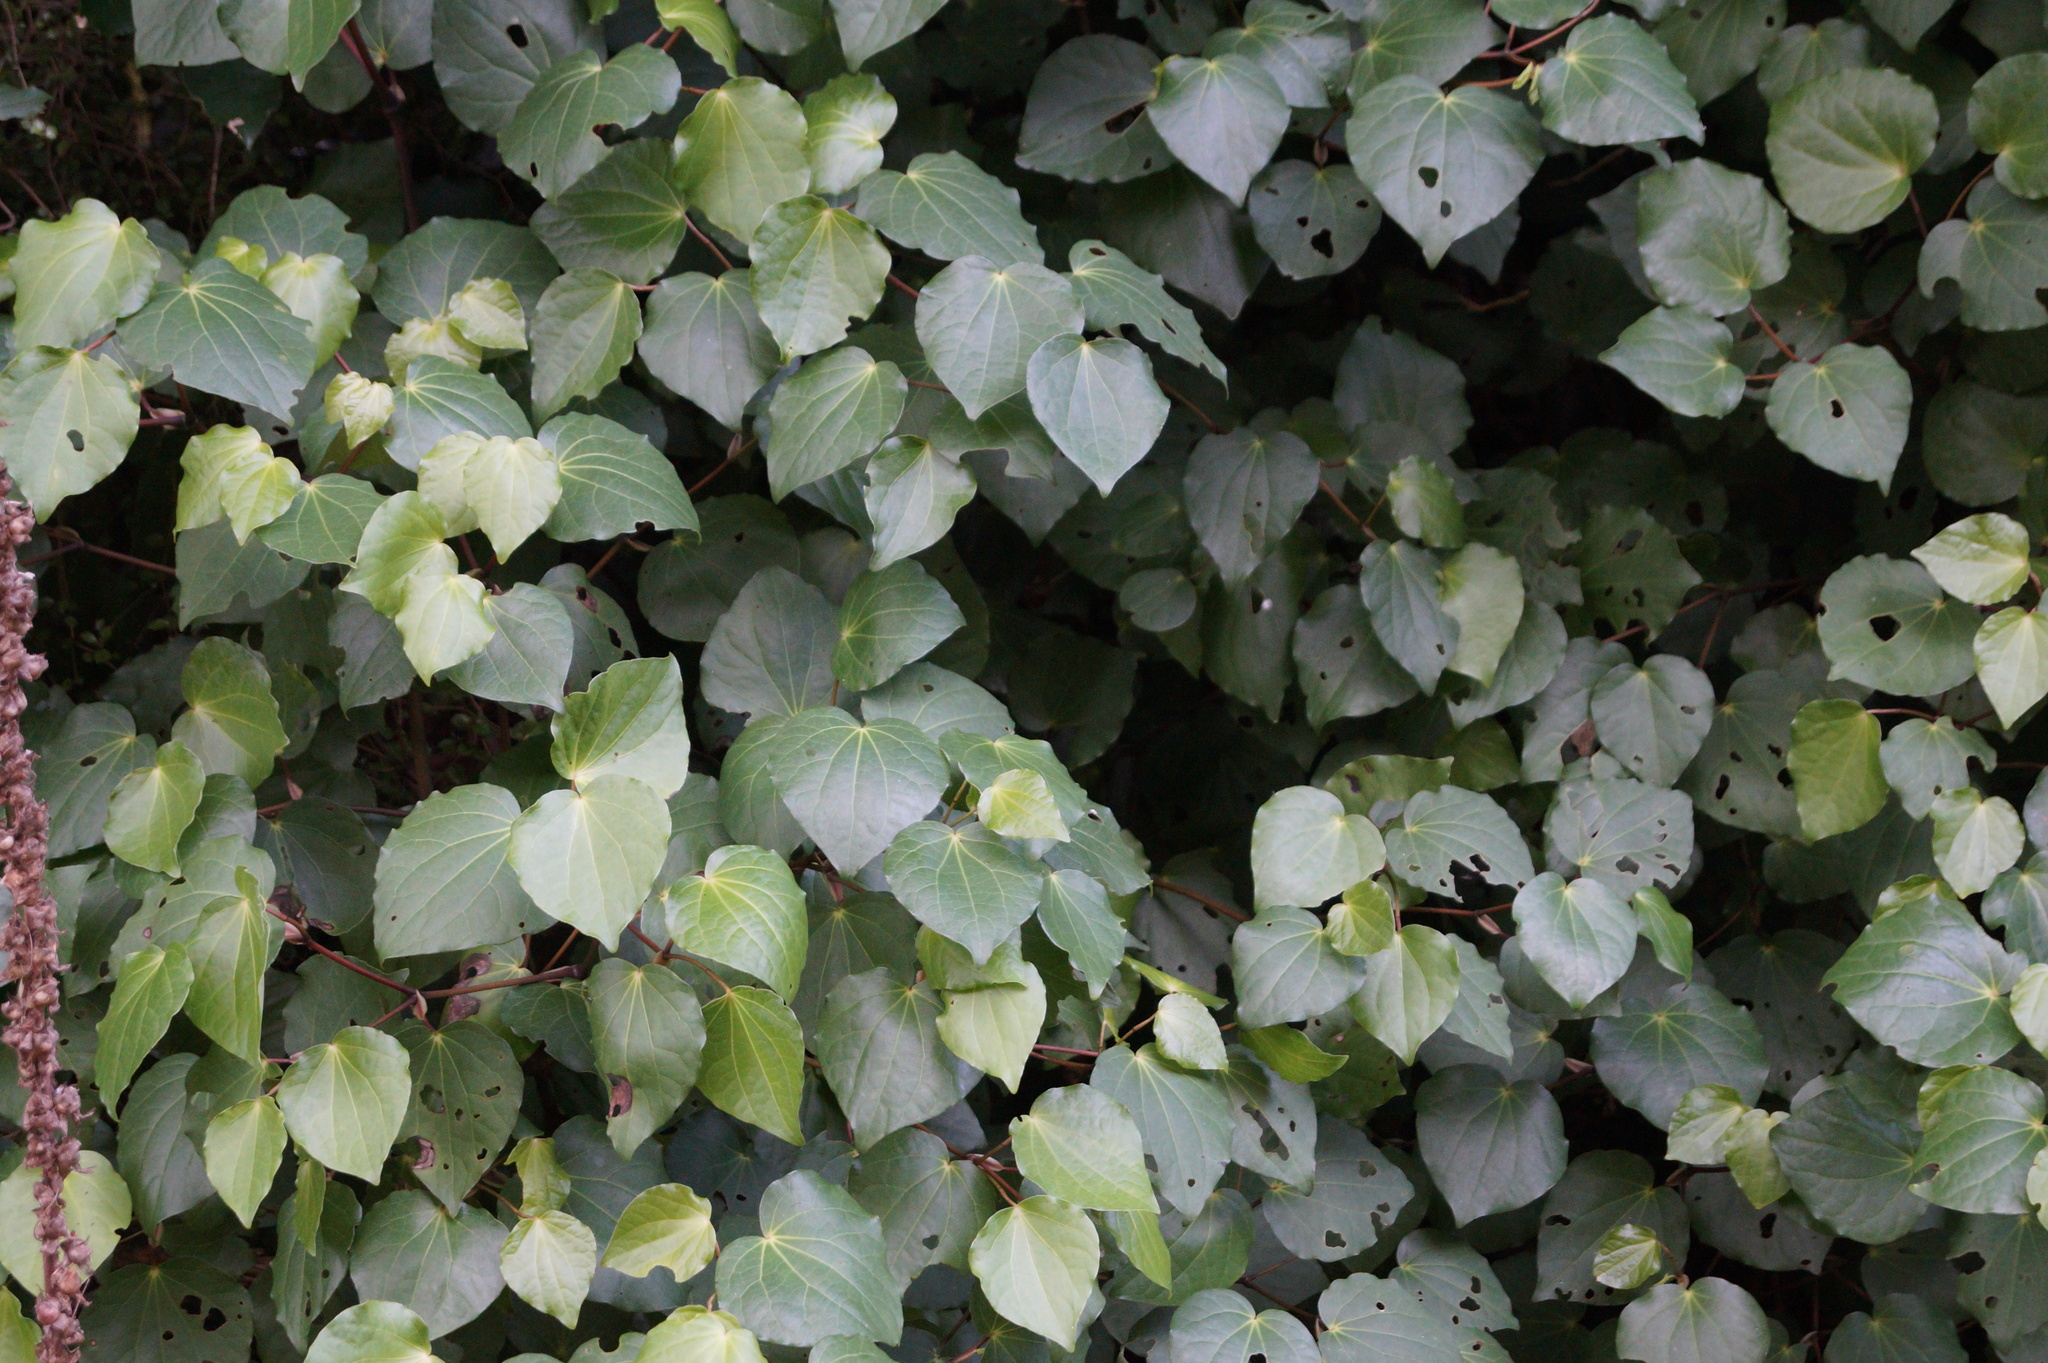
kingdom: Plantae
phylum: Tracheophyta
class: Magnoliopsida
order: Piperales
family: Piperaceae
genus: Macropiper
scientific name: Macropiper excelsum
